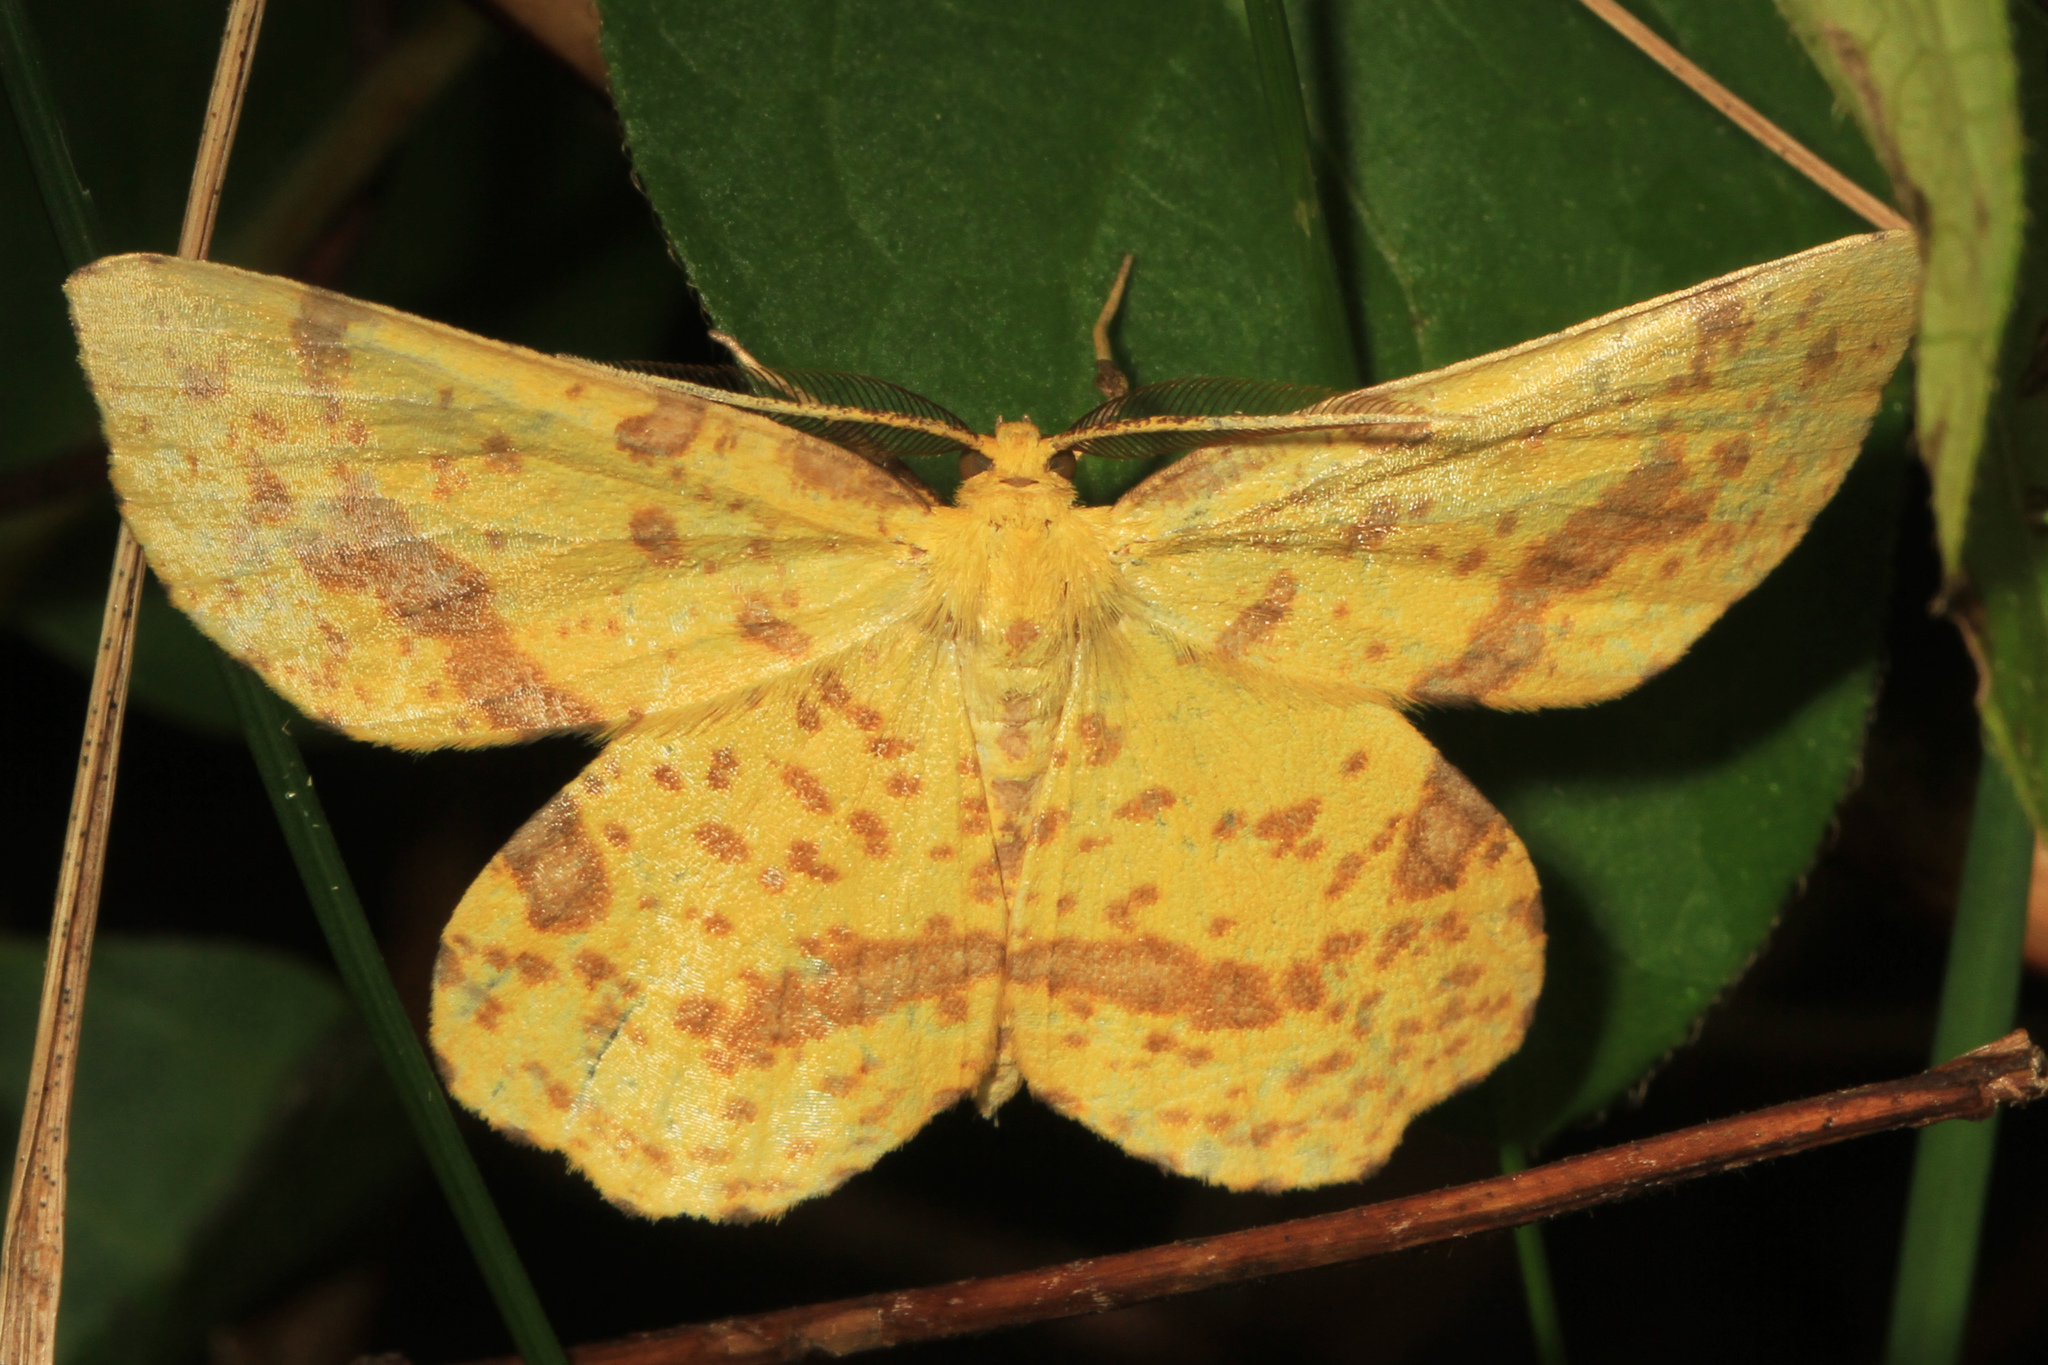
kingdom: Animalia
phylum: Arthropoda
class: Insecta
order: Lepidoptera
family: Geometridae
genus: Xanthotype
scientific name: Xanthotype
